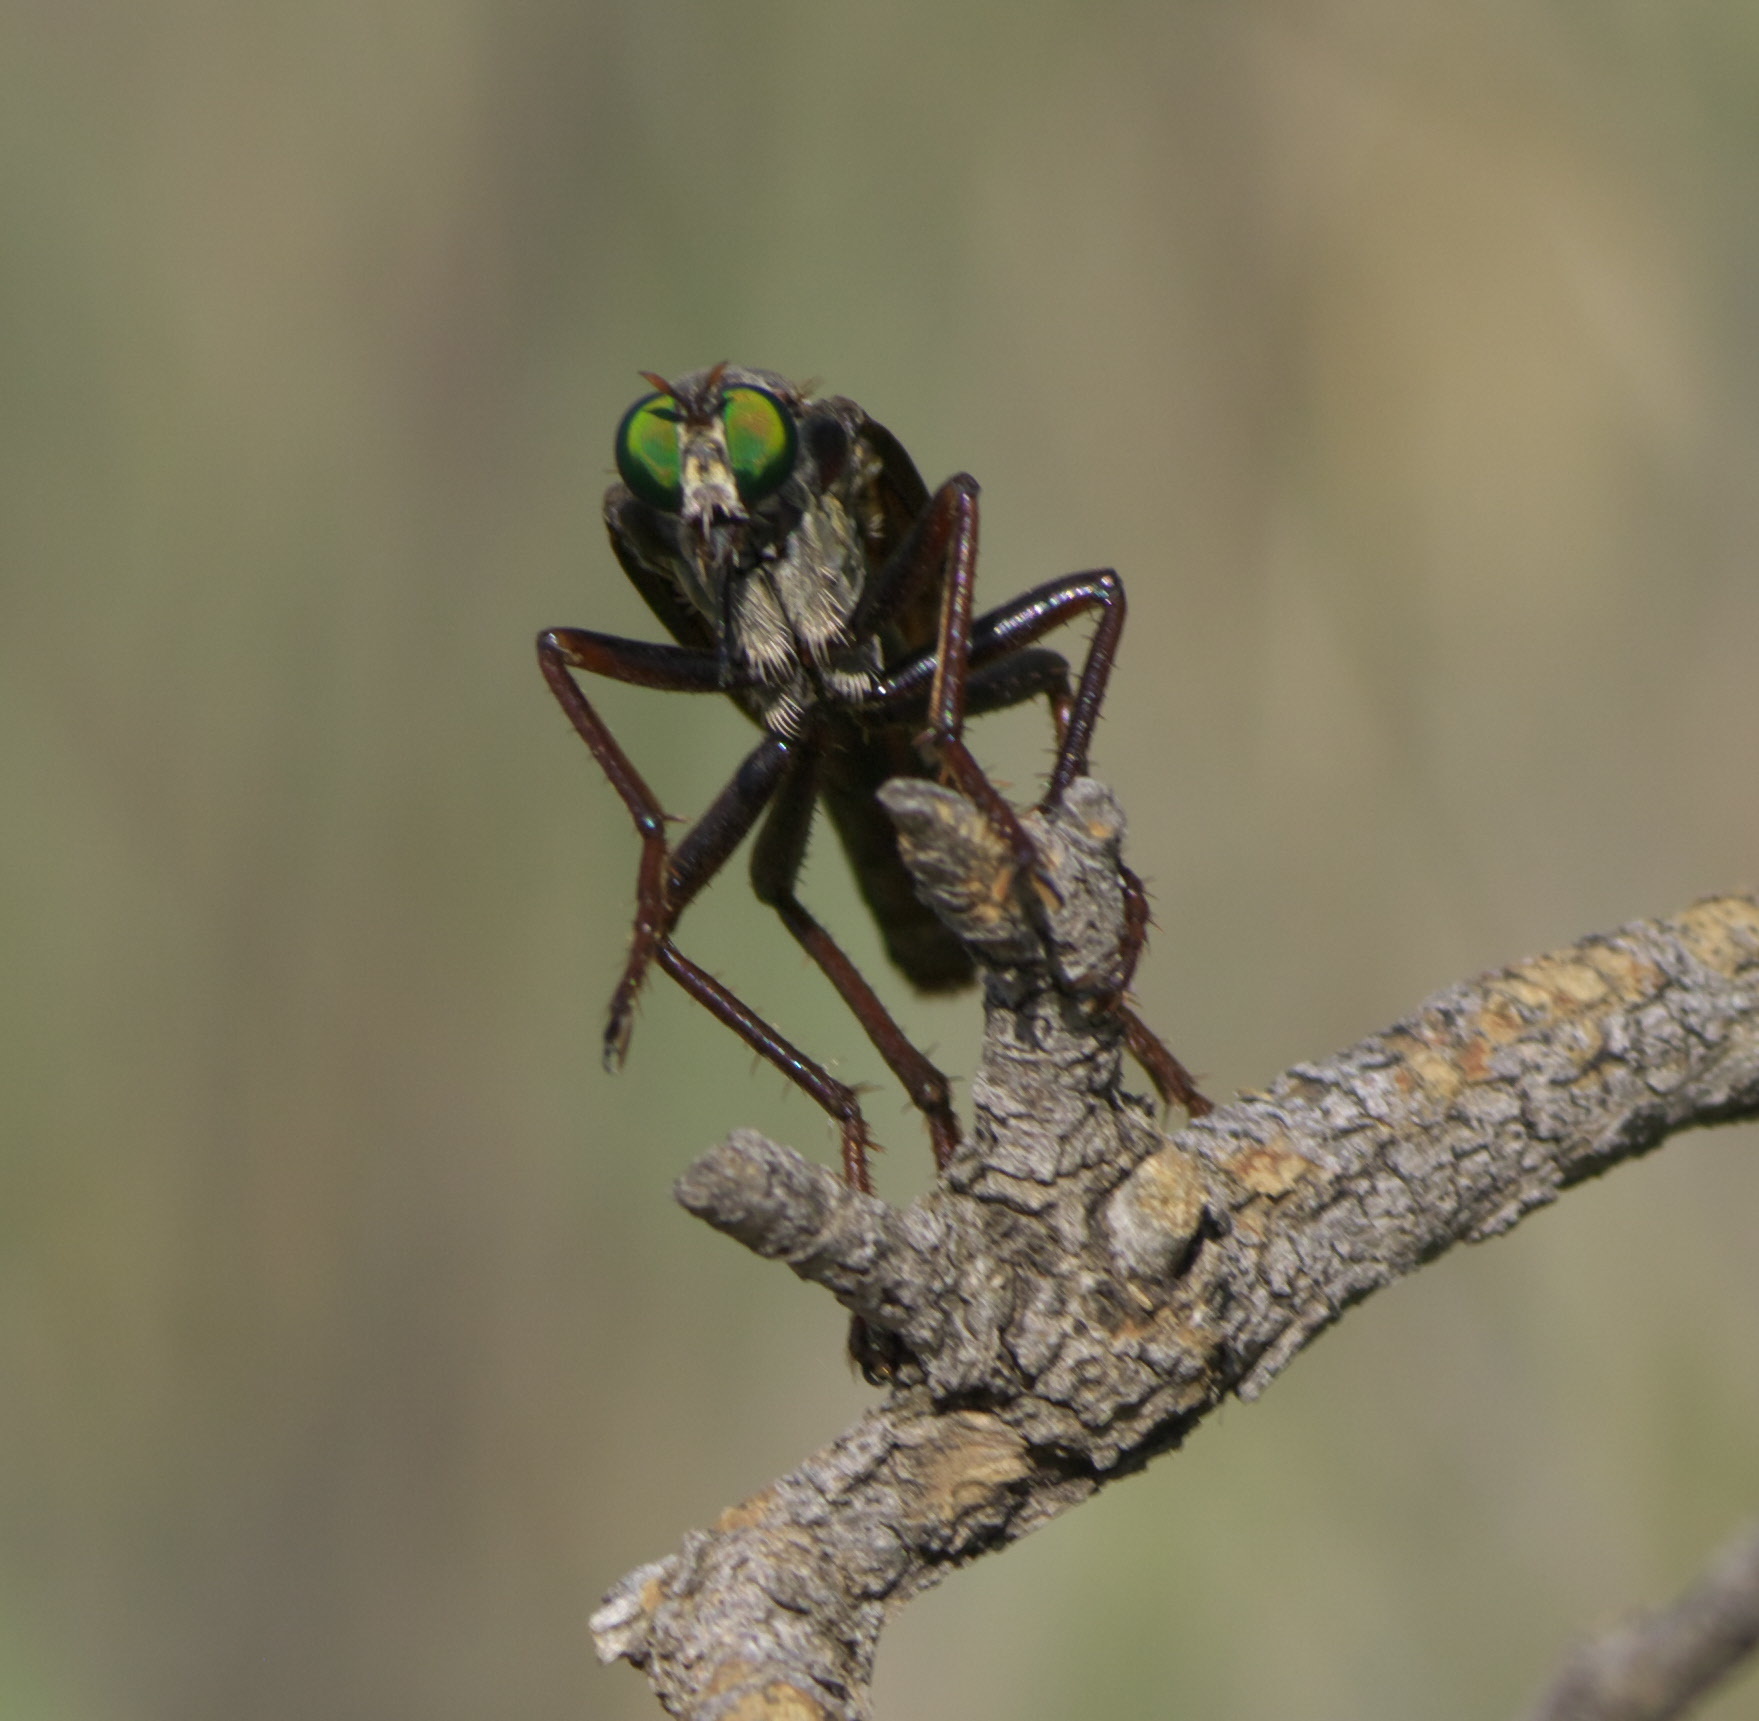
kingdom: Animalia
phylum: Arthropoda
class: Insecta
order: Diptera
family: Asilidae
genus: Microstylum
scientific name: Microstylum morosum
